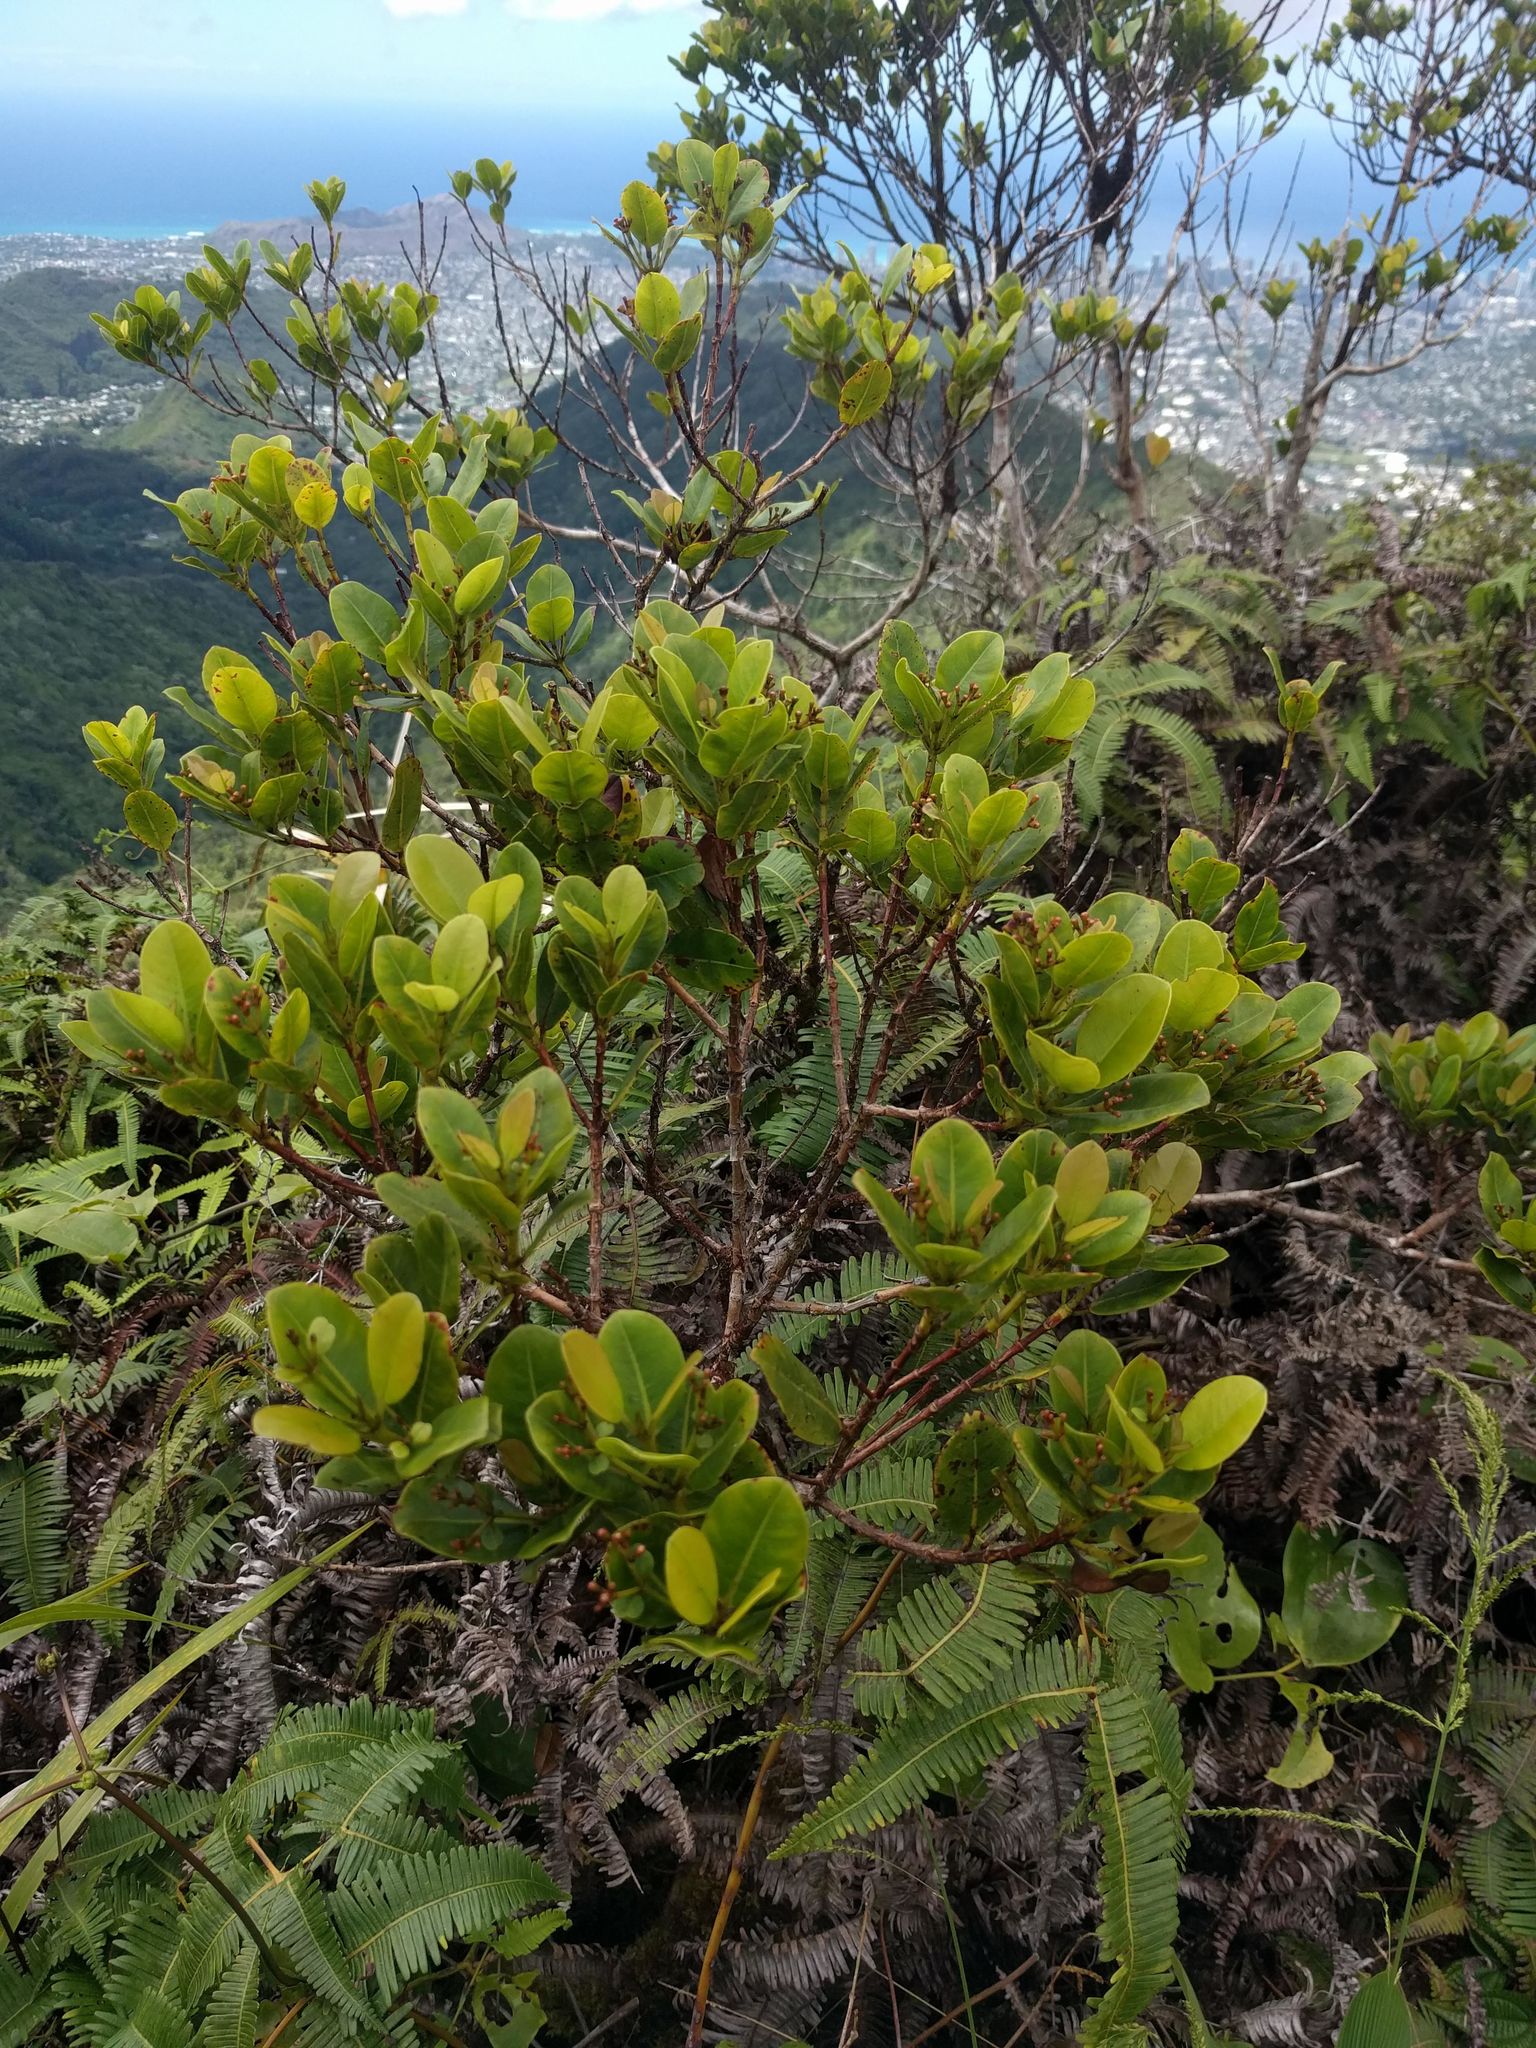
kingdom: Plantae
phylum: Tracheophyta
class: Magnoliopsida
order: Myrtales
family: Myrtaceae
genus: Syzygium
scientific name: Syzygium sandwicense
